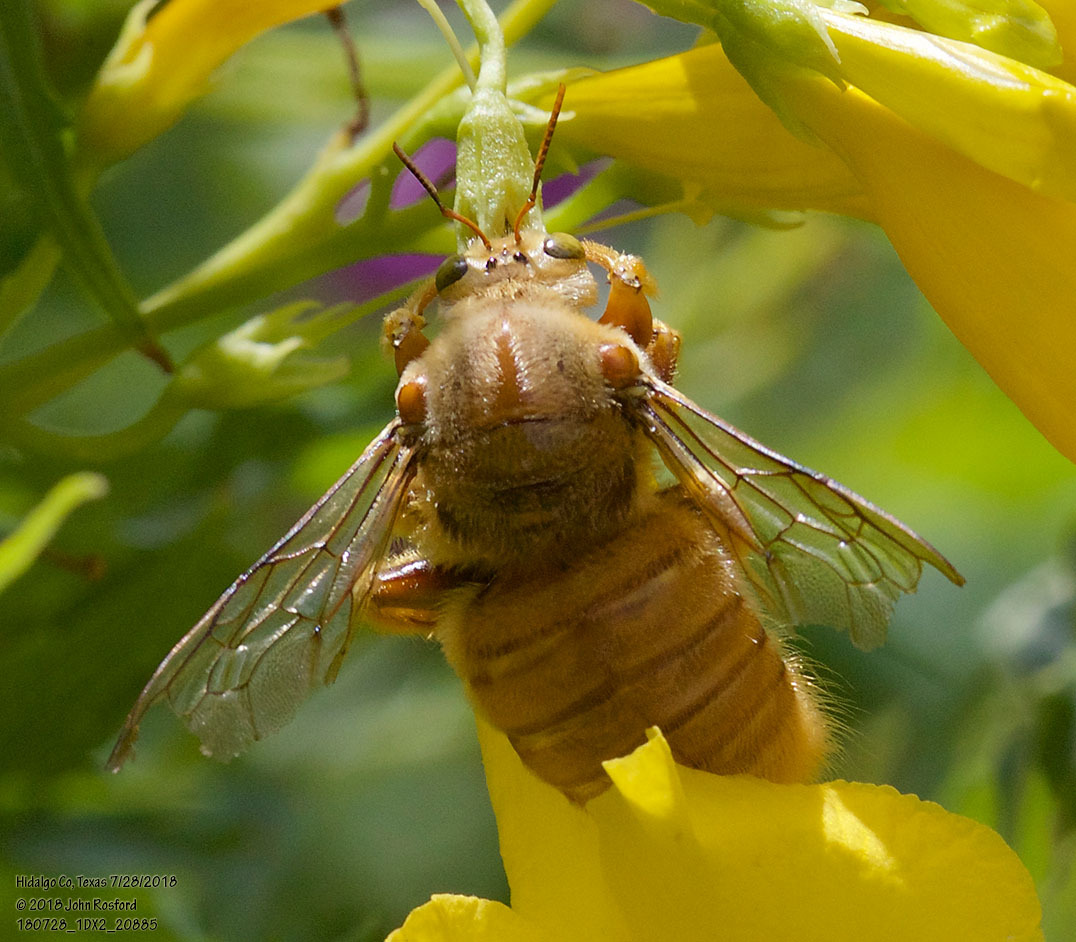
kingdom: Animalia
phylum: Arthropoda
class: Insecta
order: Hymenoptera
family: Apidae
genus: Xylocopa
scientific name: Xylocopa griswoldi
